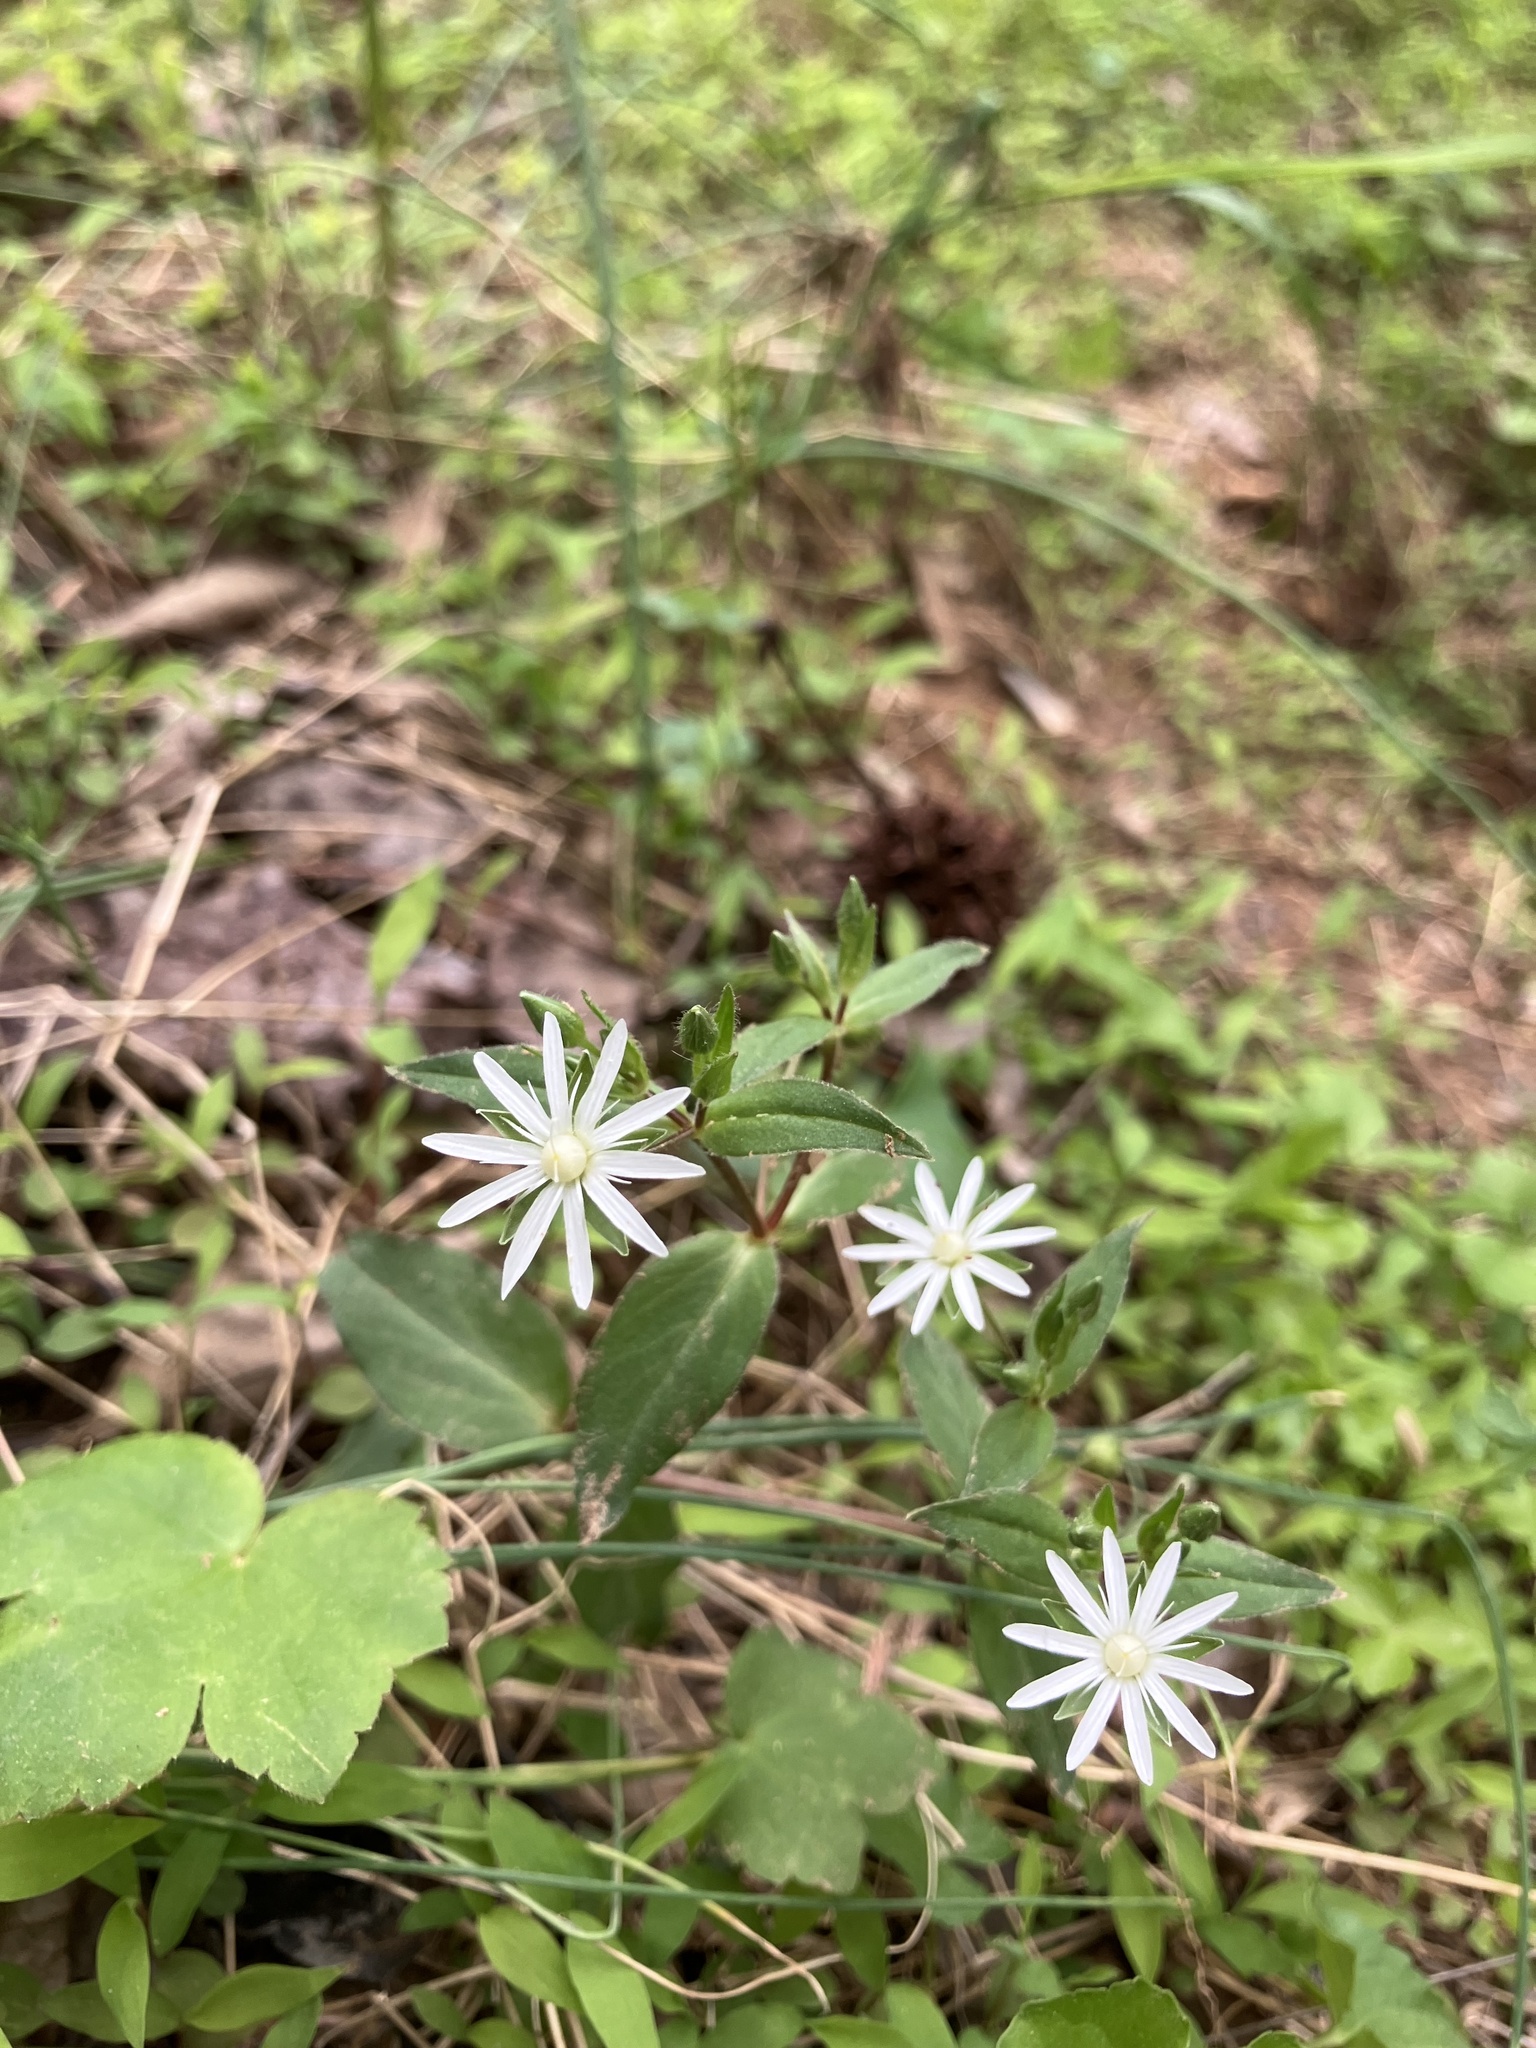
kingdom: Plantae
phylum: Tracheophyta
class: Magnoliopsida
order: Caryophyllales
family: Caryophyllaceae
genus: Stellaria
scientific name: Stellaria pubera
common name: Star chickweed
